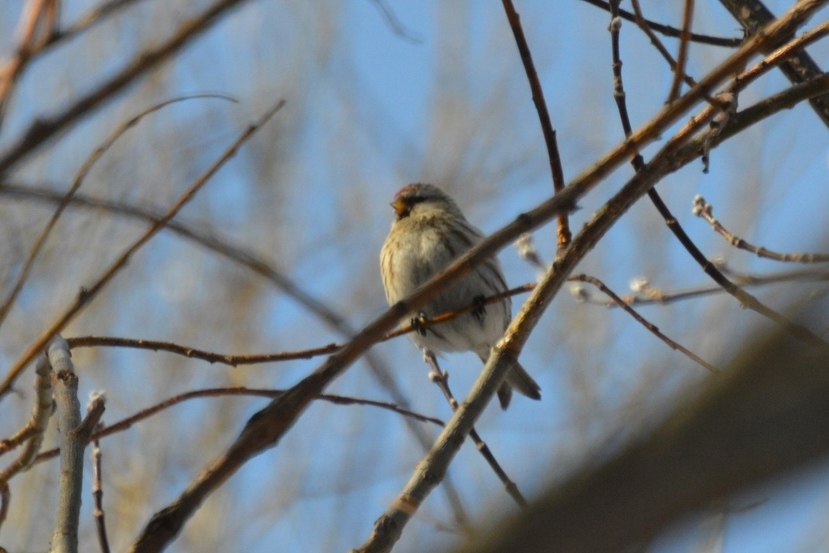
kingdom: Animalia
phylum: Chordata
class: Aves
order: Passeriformes
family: Fringillidae
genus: Acanthis
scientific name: Acanthis hornemanni
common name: Arctic redpoll
